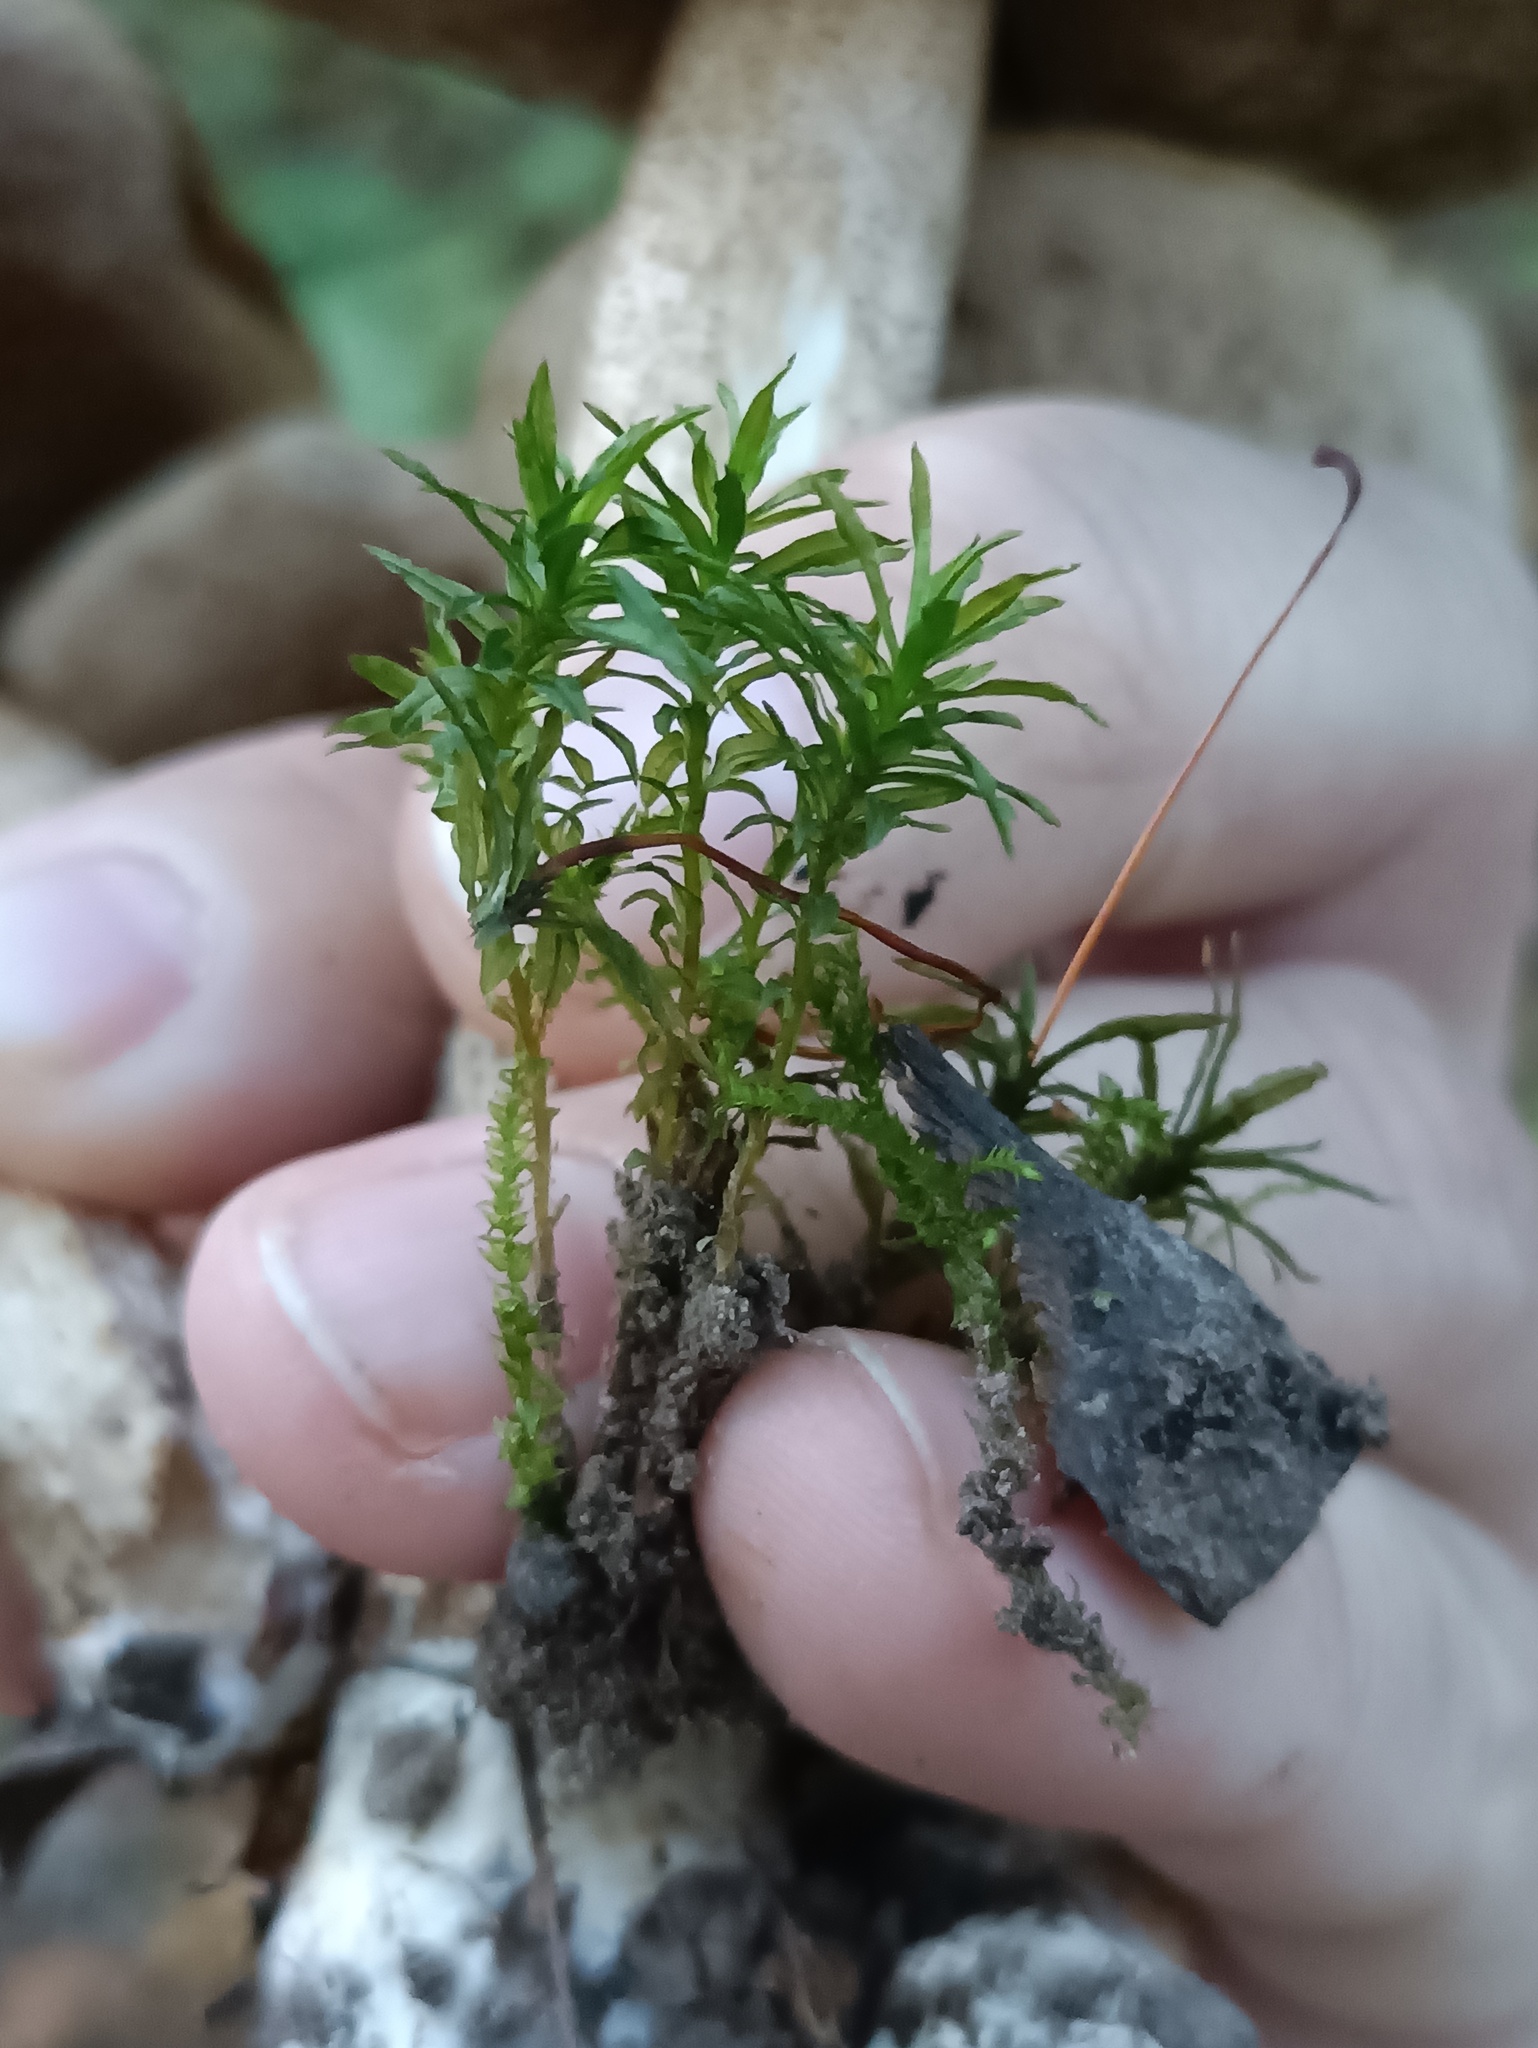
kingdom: Plantae
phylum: Bryophyta
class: Polytrichopsida
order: Polytrichales
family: Polytrichaceae
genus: Atrichum
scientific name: Atrichum undulatum
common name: Common smoothcap
